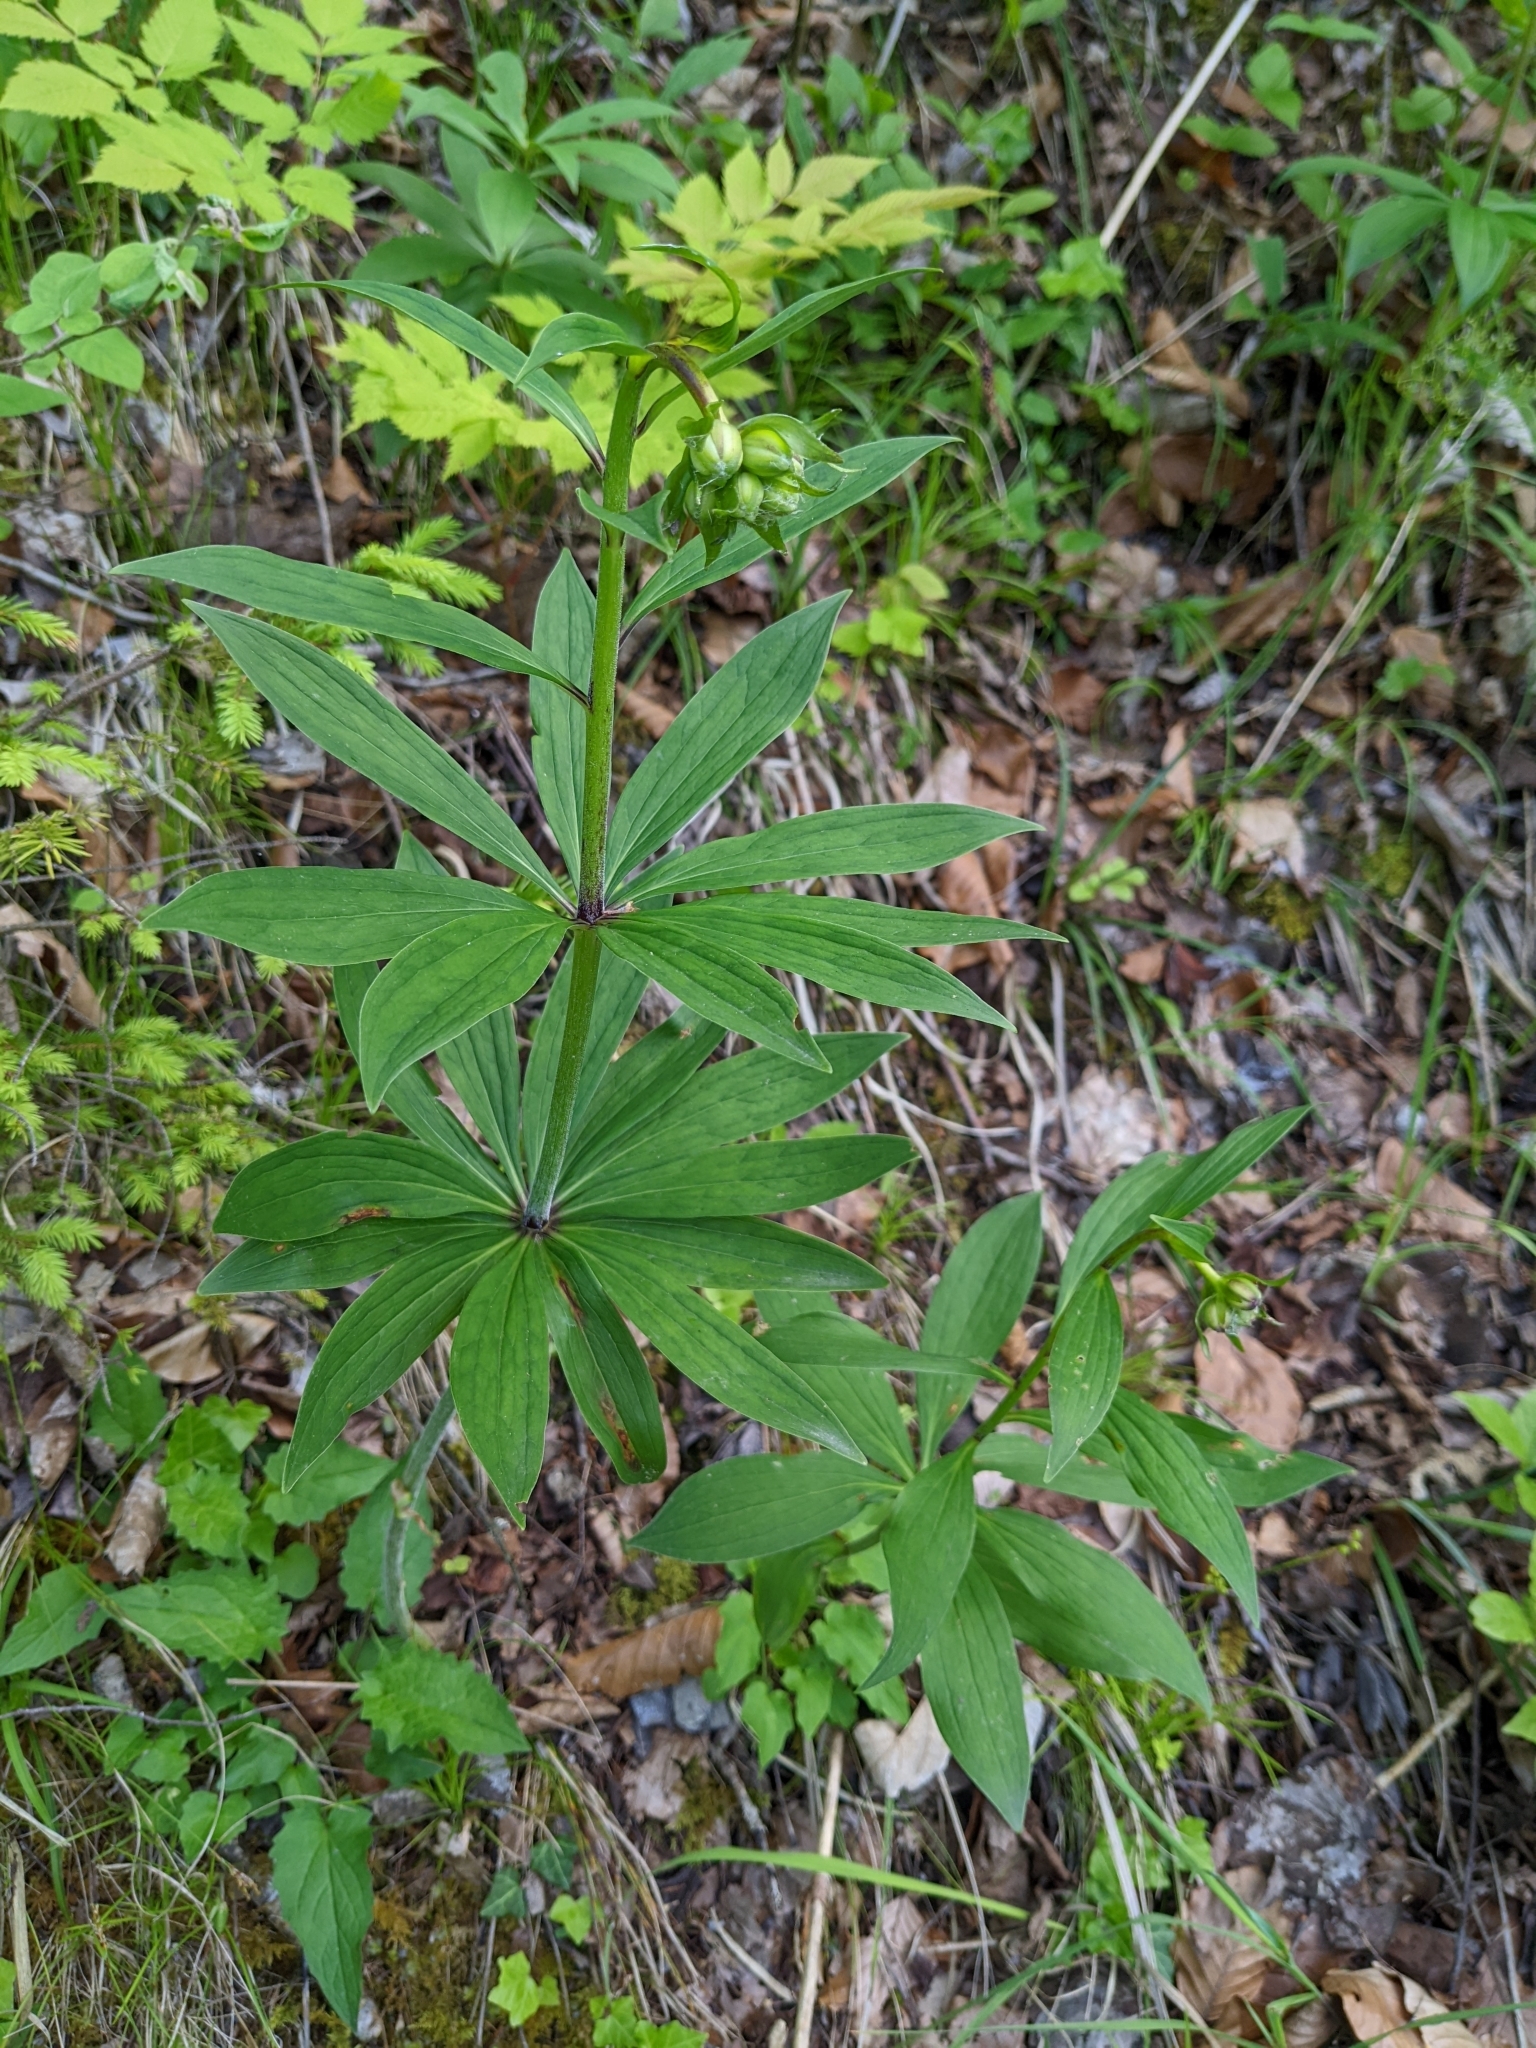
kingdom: Plantae
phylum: Tracheophyta
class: Liliopsida
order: Liliales
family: Liliaceae
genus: Lilium
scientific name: Lilium martagon
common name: Martagon lily
